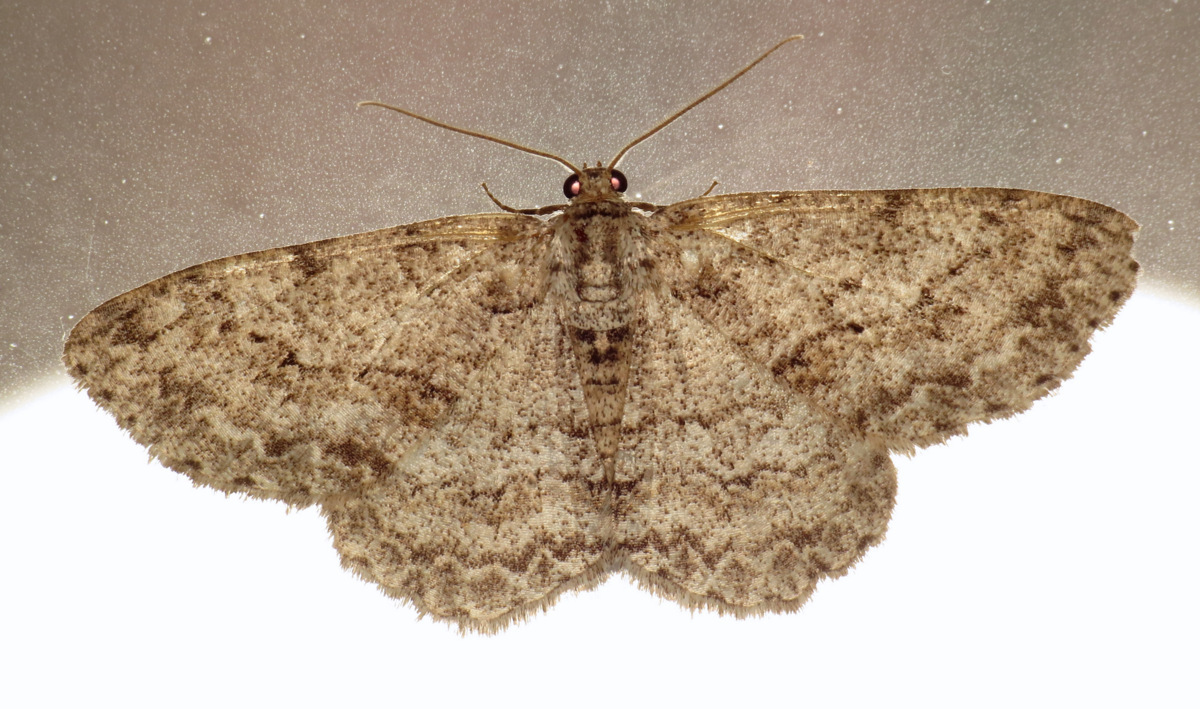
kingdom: Animalia
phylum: Arthropoda
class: Insecta
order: Lepidoptera
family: Geometridae
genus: Ectropis
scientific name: Ectropis crepuscularia
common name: Engrailed
